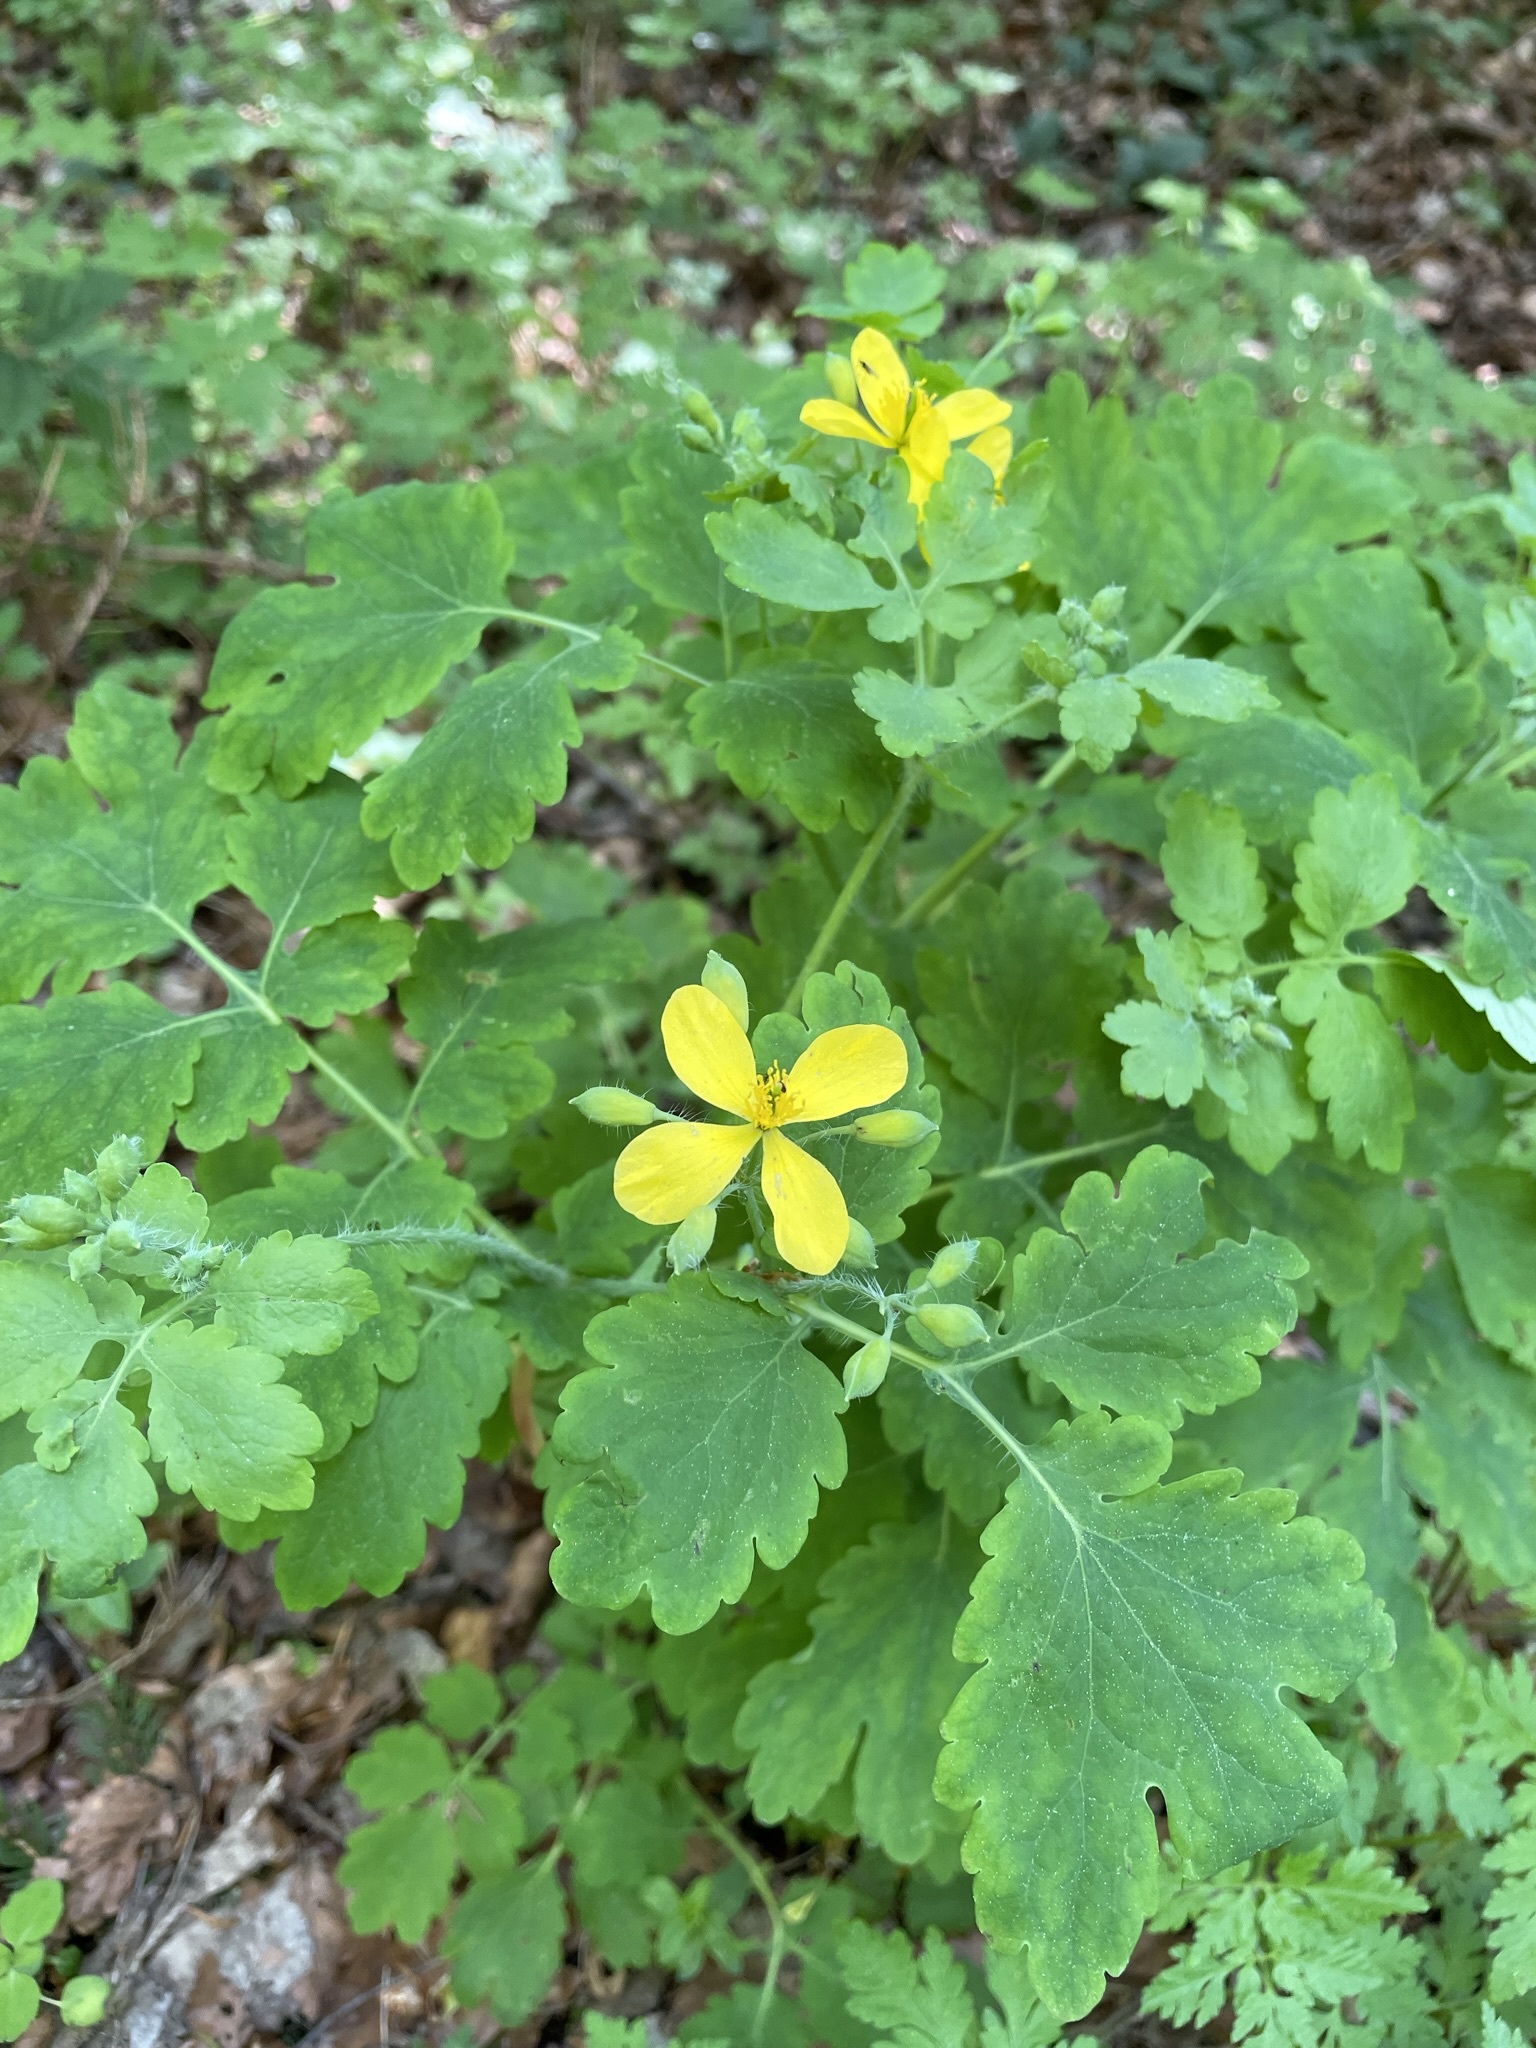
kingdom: Plantae
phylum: Tracheophyta
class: Magnoliopsida
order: Ranunculales
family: Papaveraceae
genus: Chelidonium
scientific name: Chelidonium majus
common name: Greater celandine
